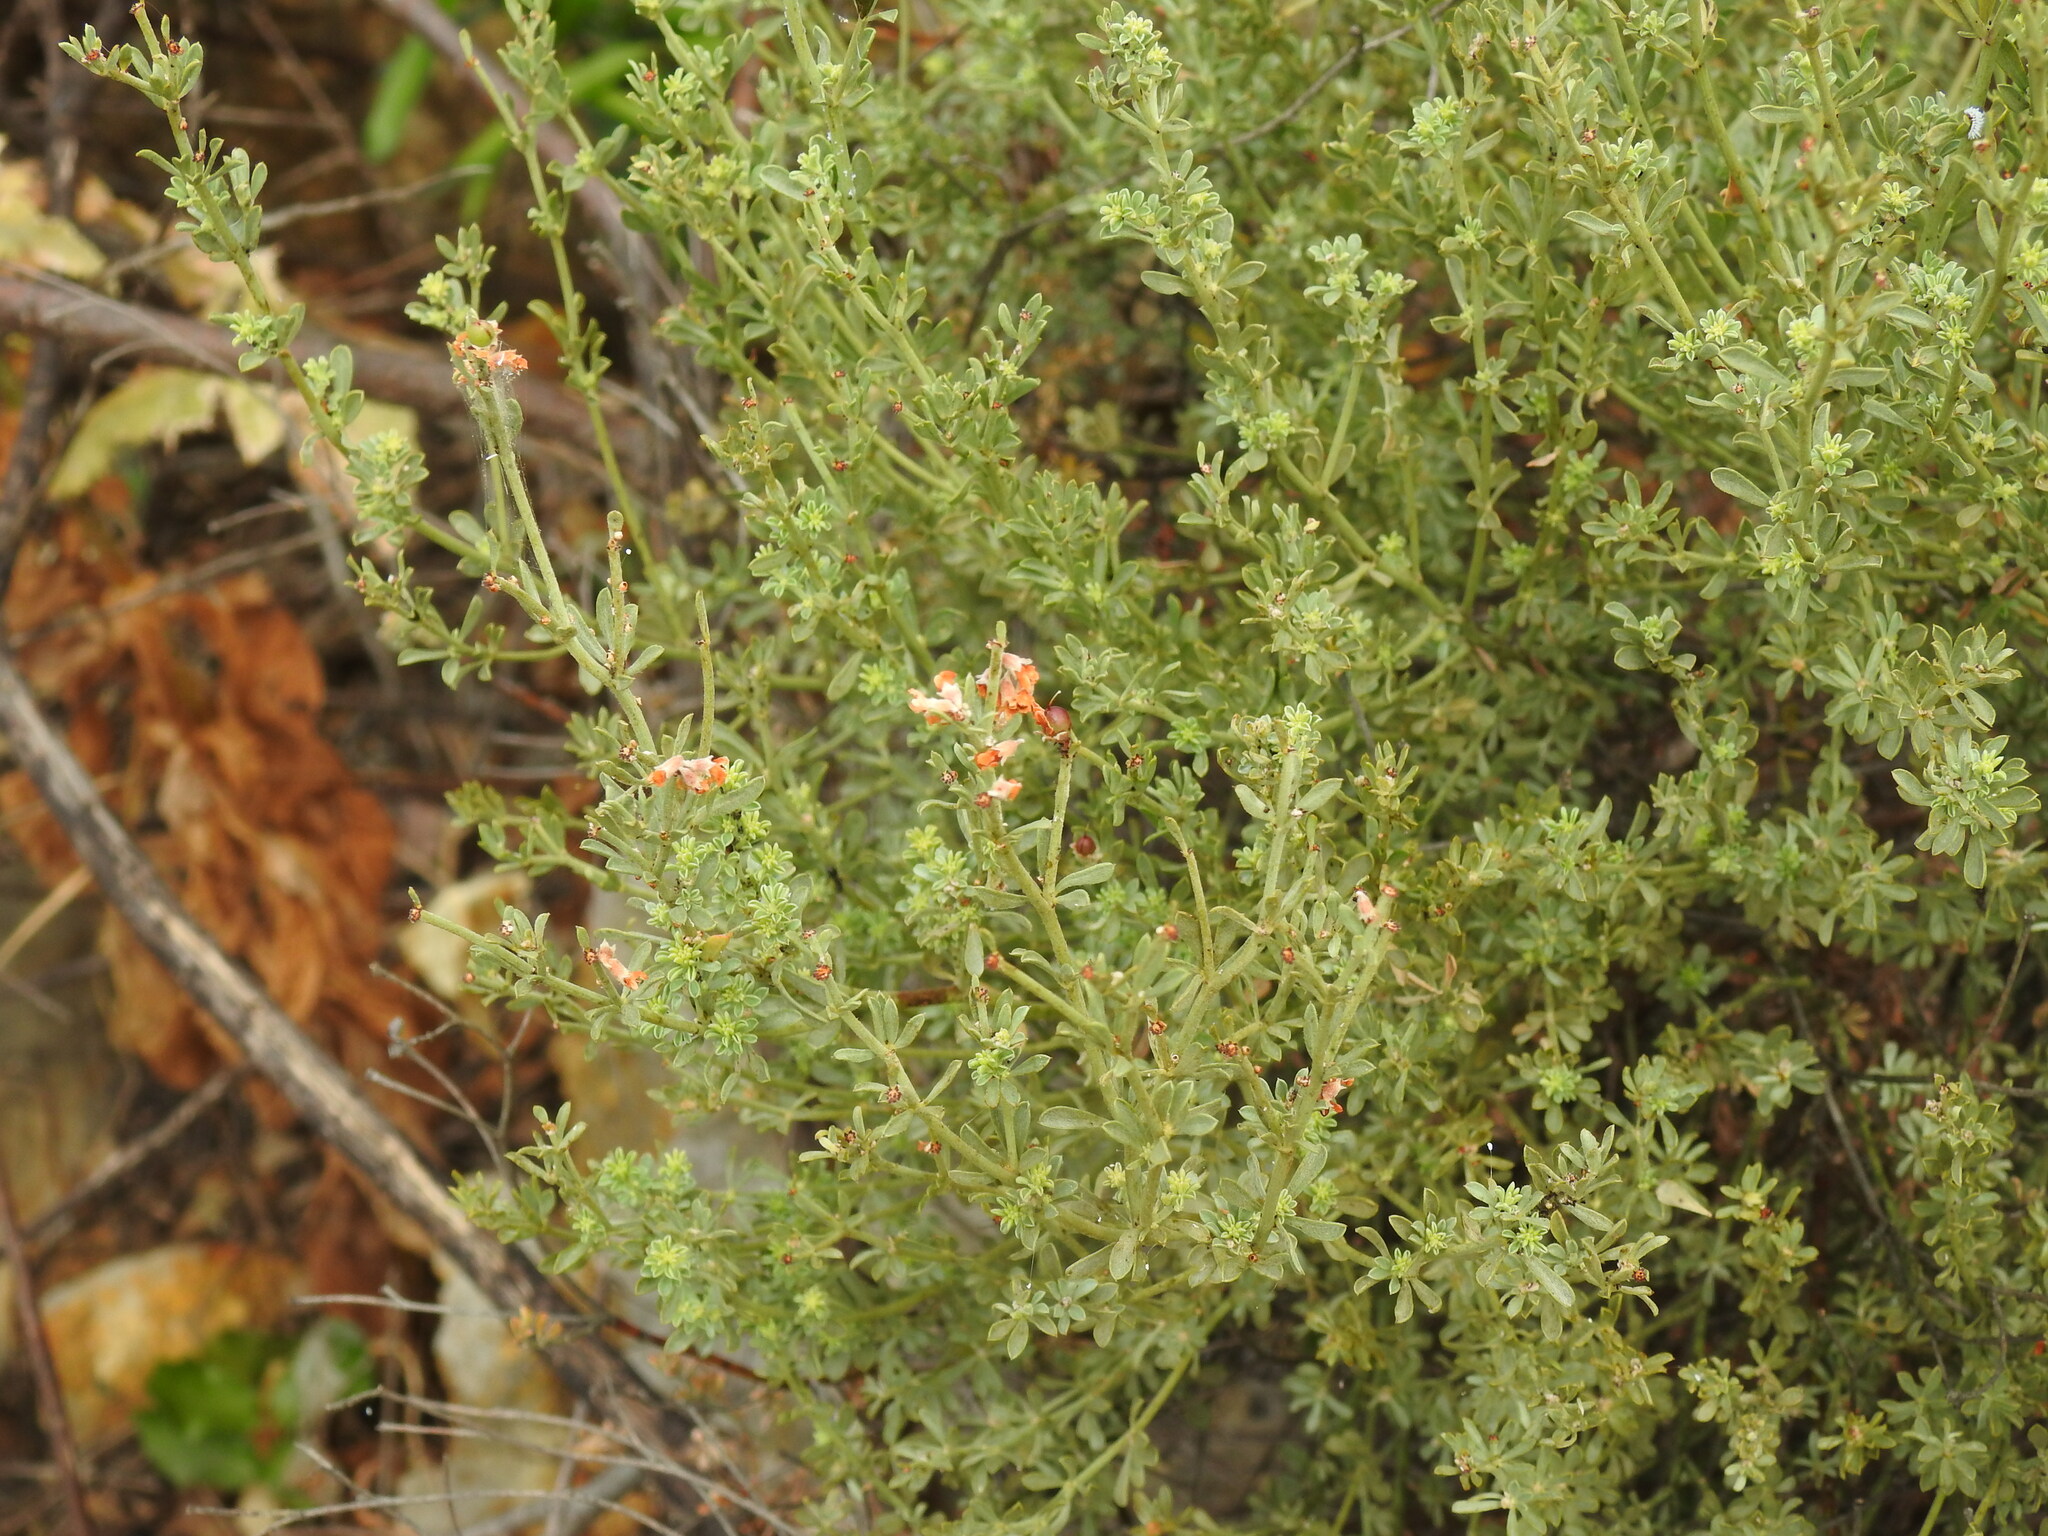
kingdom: Plantae
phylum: Tracheophyta
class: Magnoliopsida
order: Fabales
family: Fabaceae
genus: Lotus
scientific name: Lotus dorycnium
